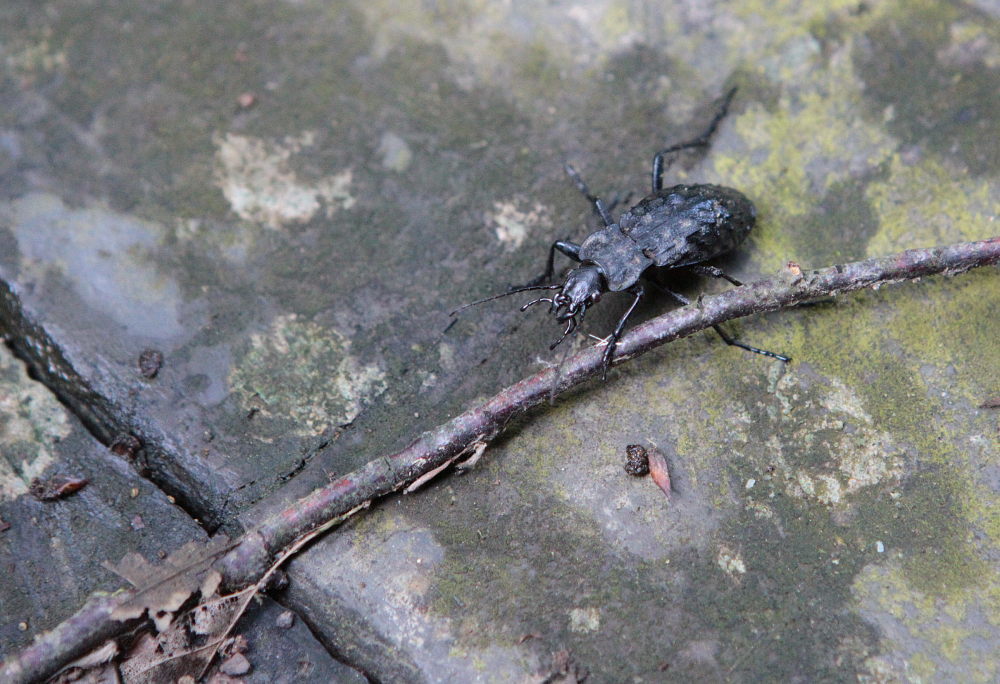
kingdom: Animalia
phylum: Arthropoda
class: Insecta
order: Coleoptera
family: Carabidae
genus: Carabus
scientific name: Carabus variolosus
